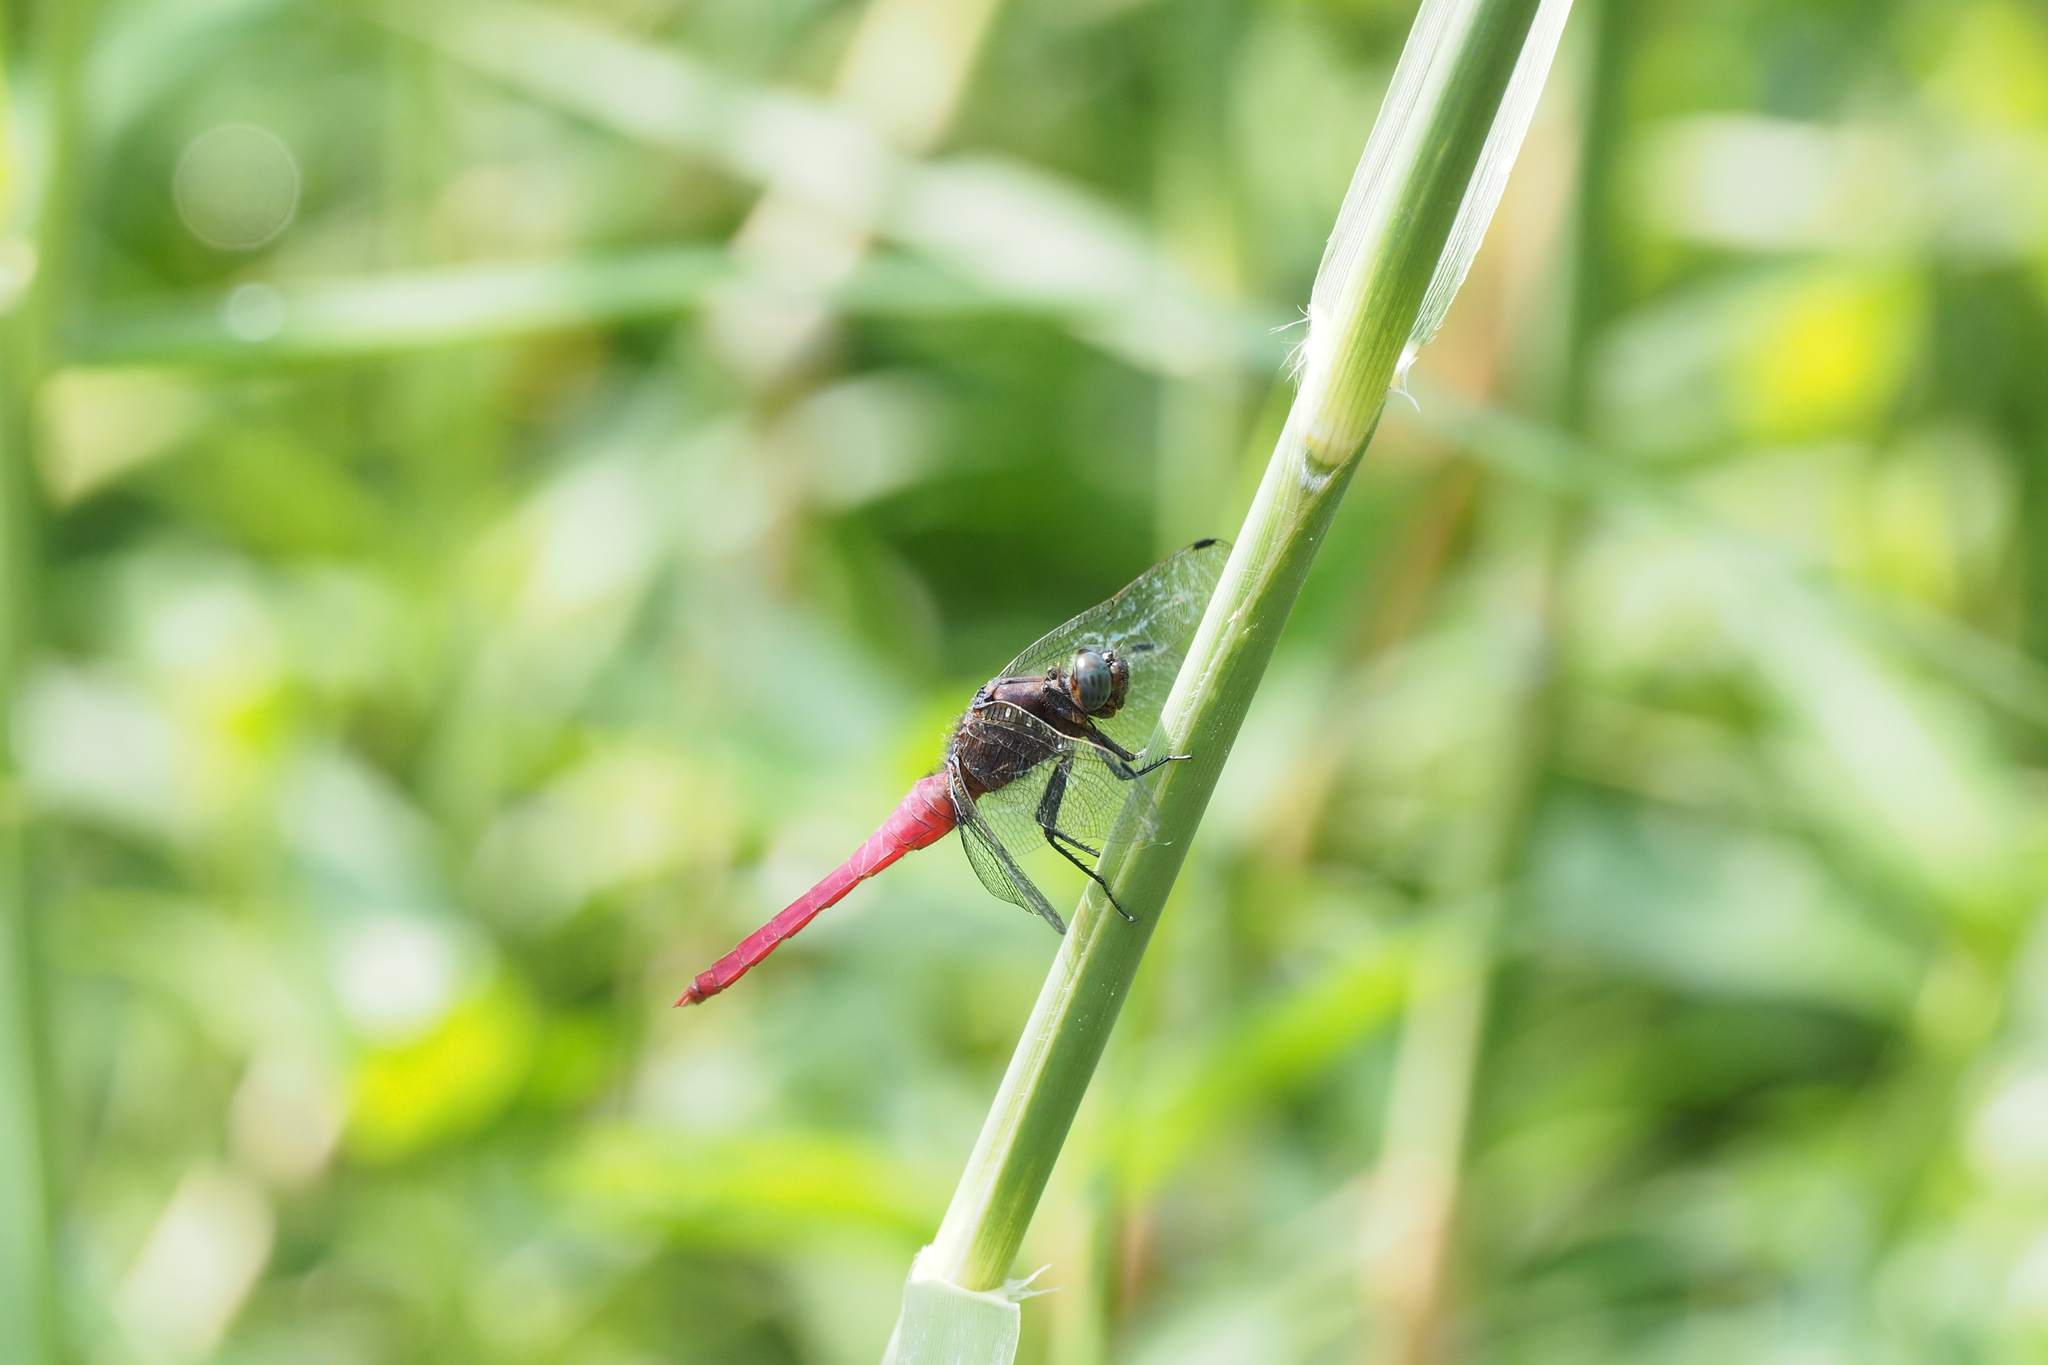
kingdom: Animalia
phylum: Arthropoda
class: Insecta
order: Odonata
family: Libellulidae
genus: Orthetrum
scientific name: Orthetrum pruinosum
